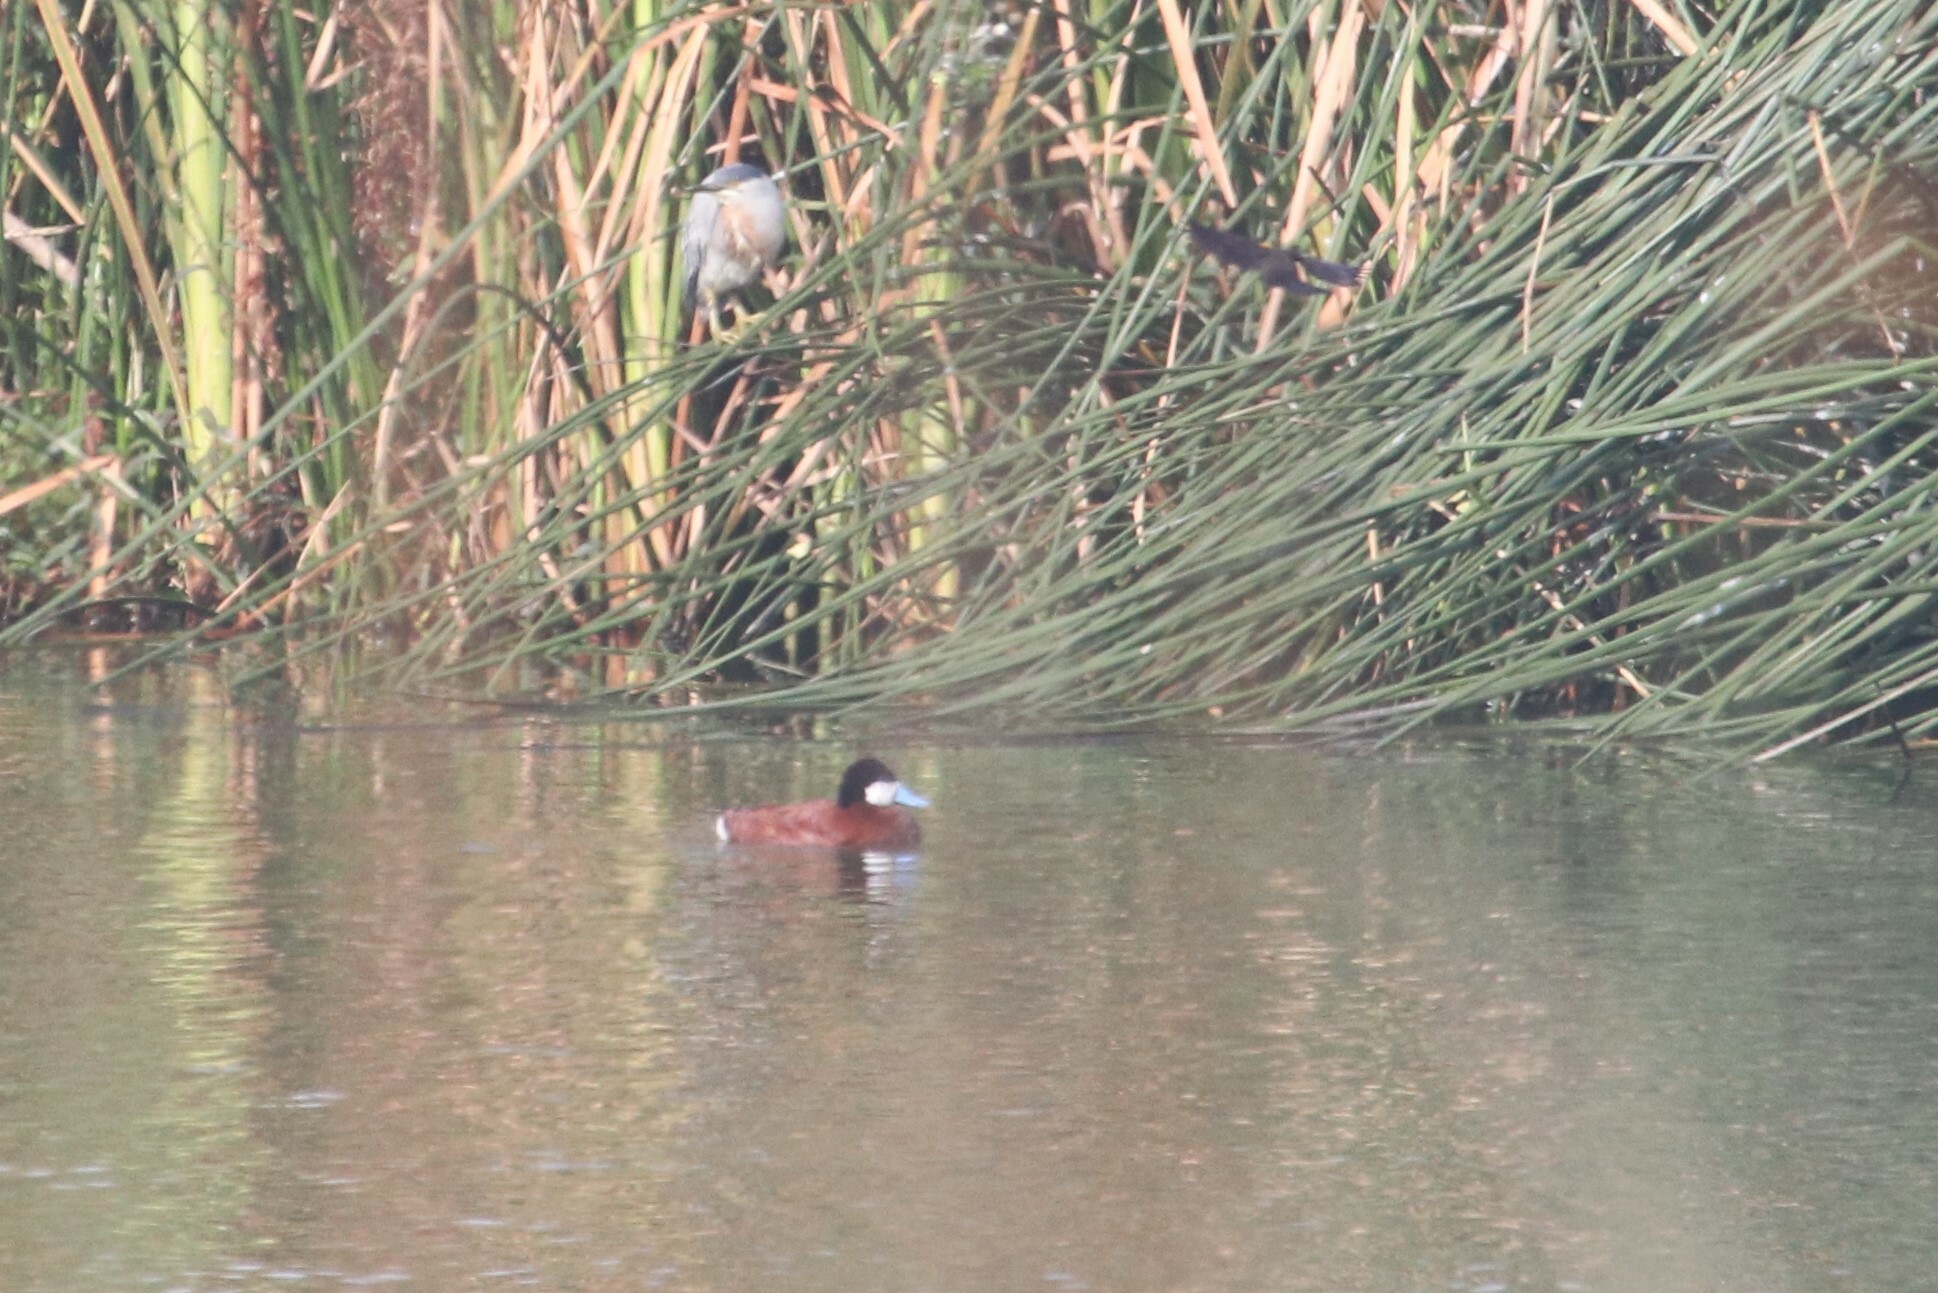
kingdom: Animalia
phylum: Chordata
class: Aves
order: Anseriformes
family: Anatidae
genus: Oxyura
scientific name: Oxyura ferruginea
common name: Andean duck
